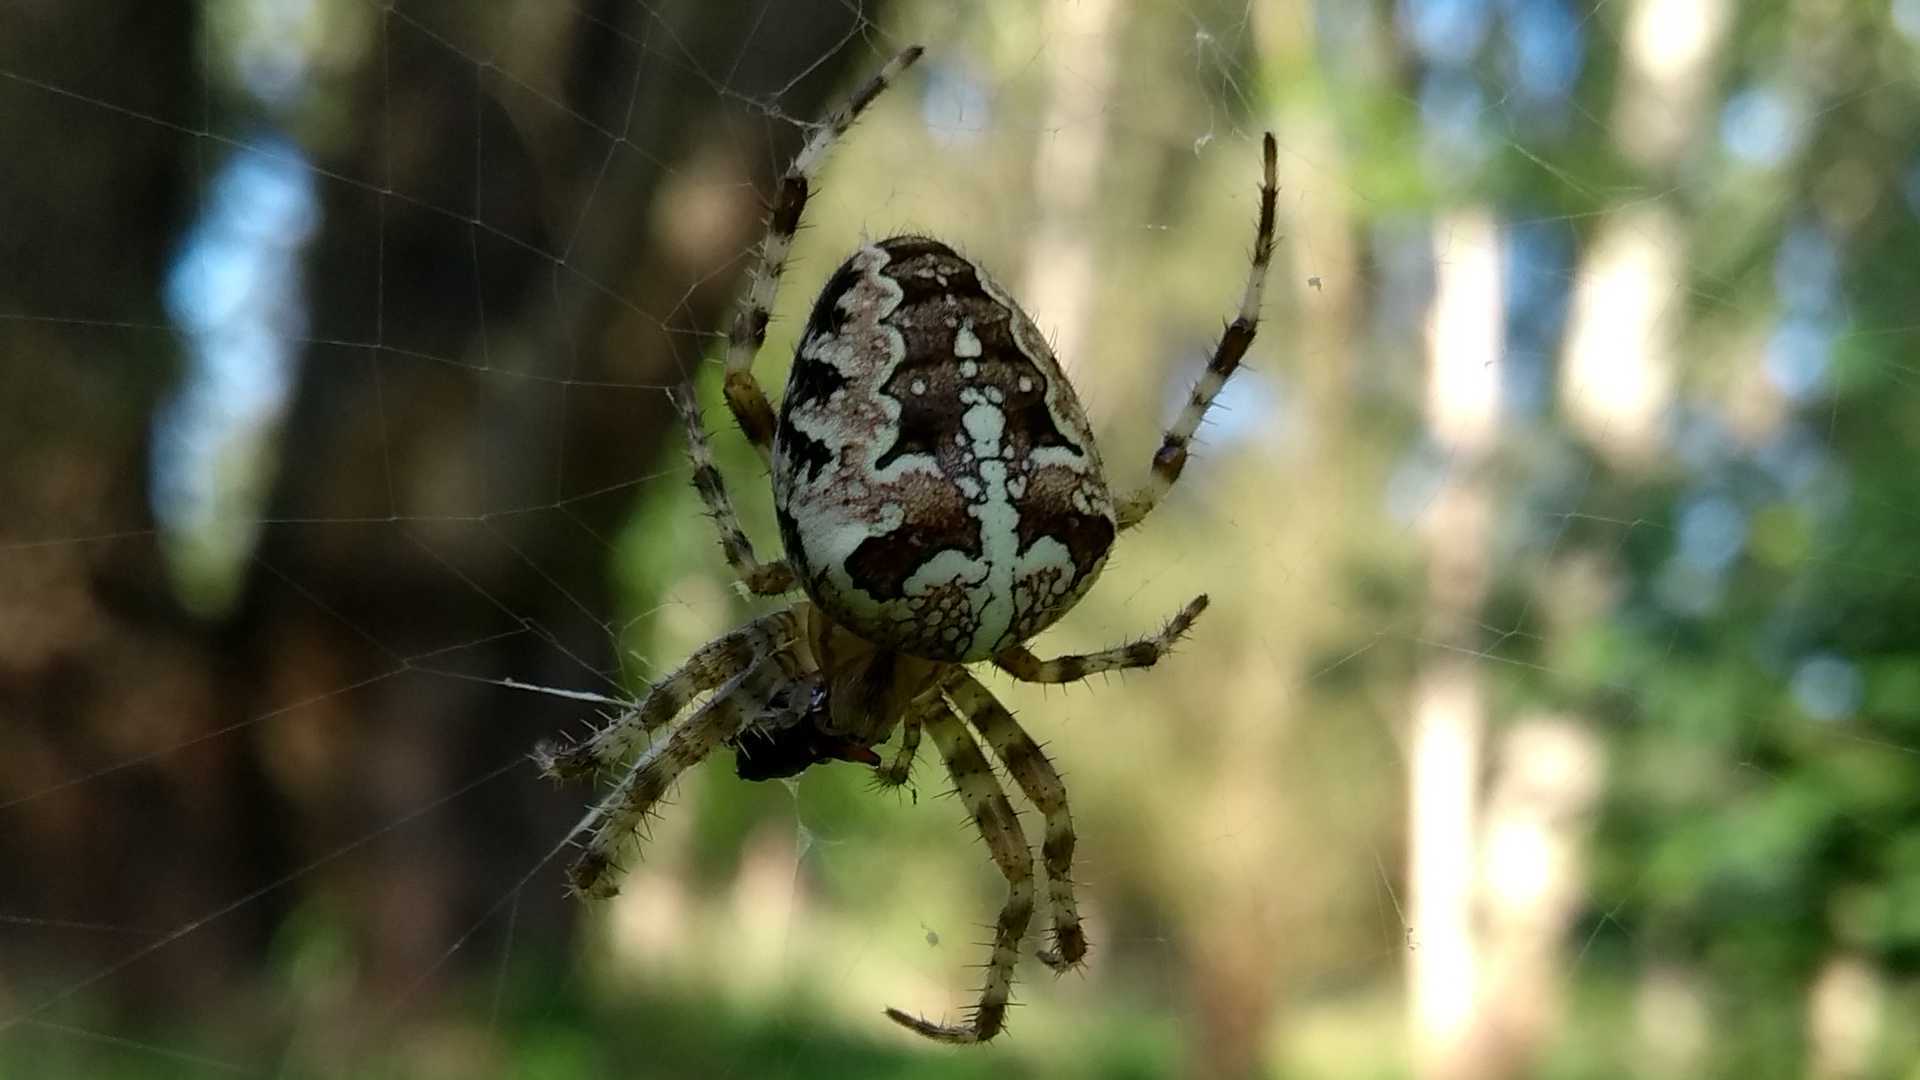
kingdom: Animalia
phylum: Arthropoda
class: Arachnida
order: Araneae
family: Araneidae
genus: Araneus
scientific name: Araneus diadematus
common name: Cross orbweaver
